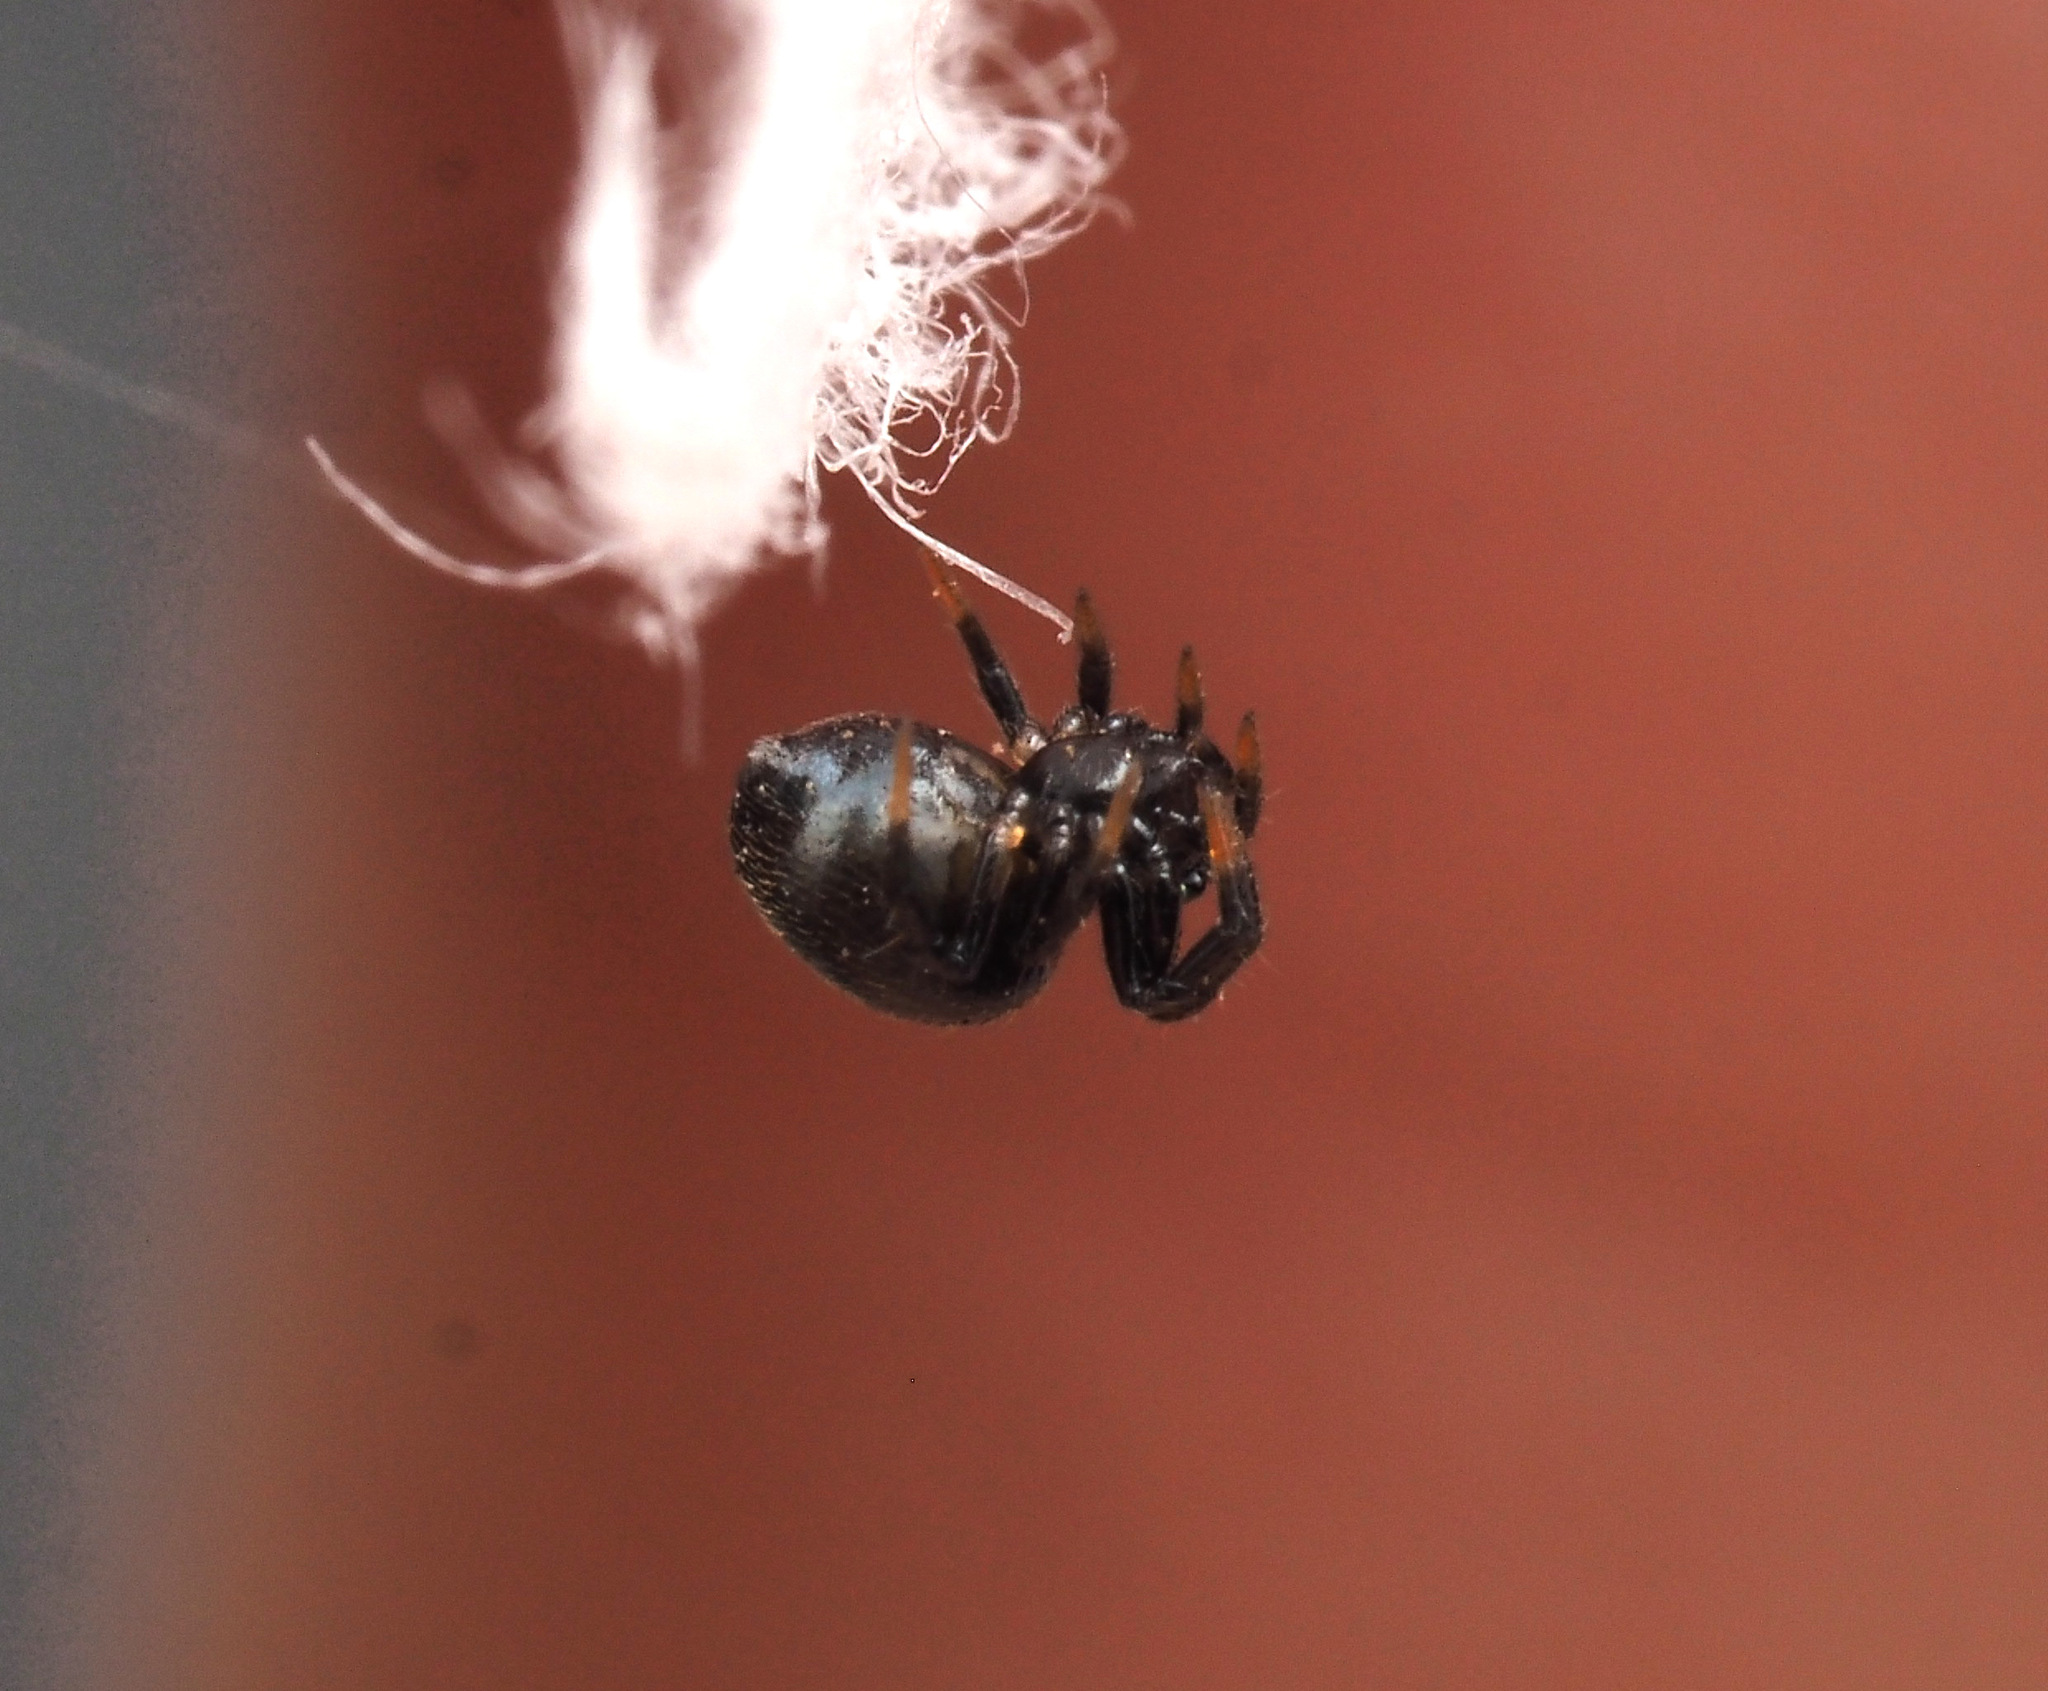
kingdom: Animalia
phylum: Arthropoda
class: Arachnida
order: Araneae
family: Theridiidae
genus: Euryopis
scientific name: Euryopis
